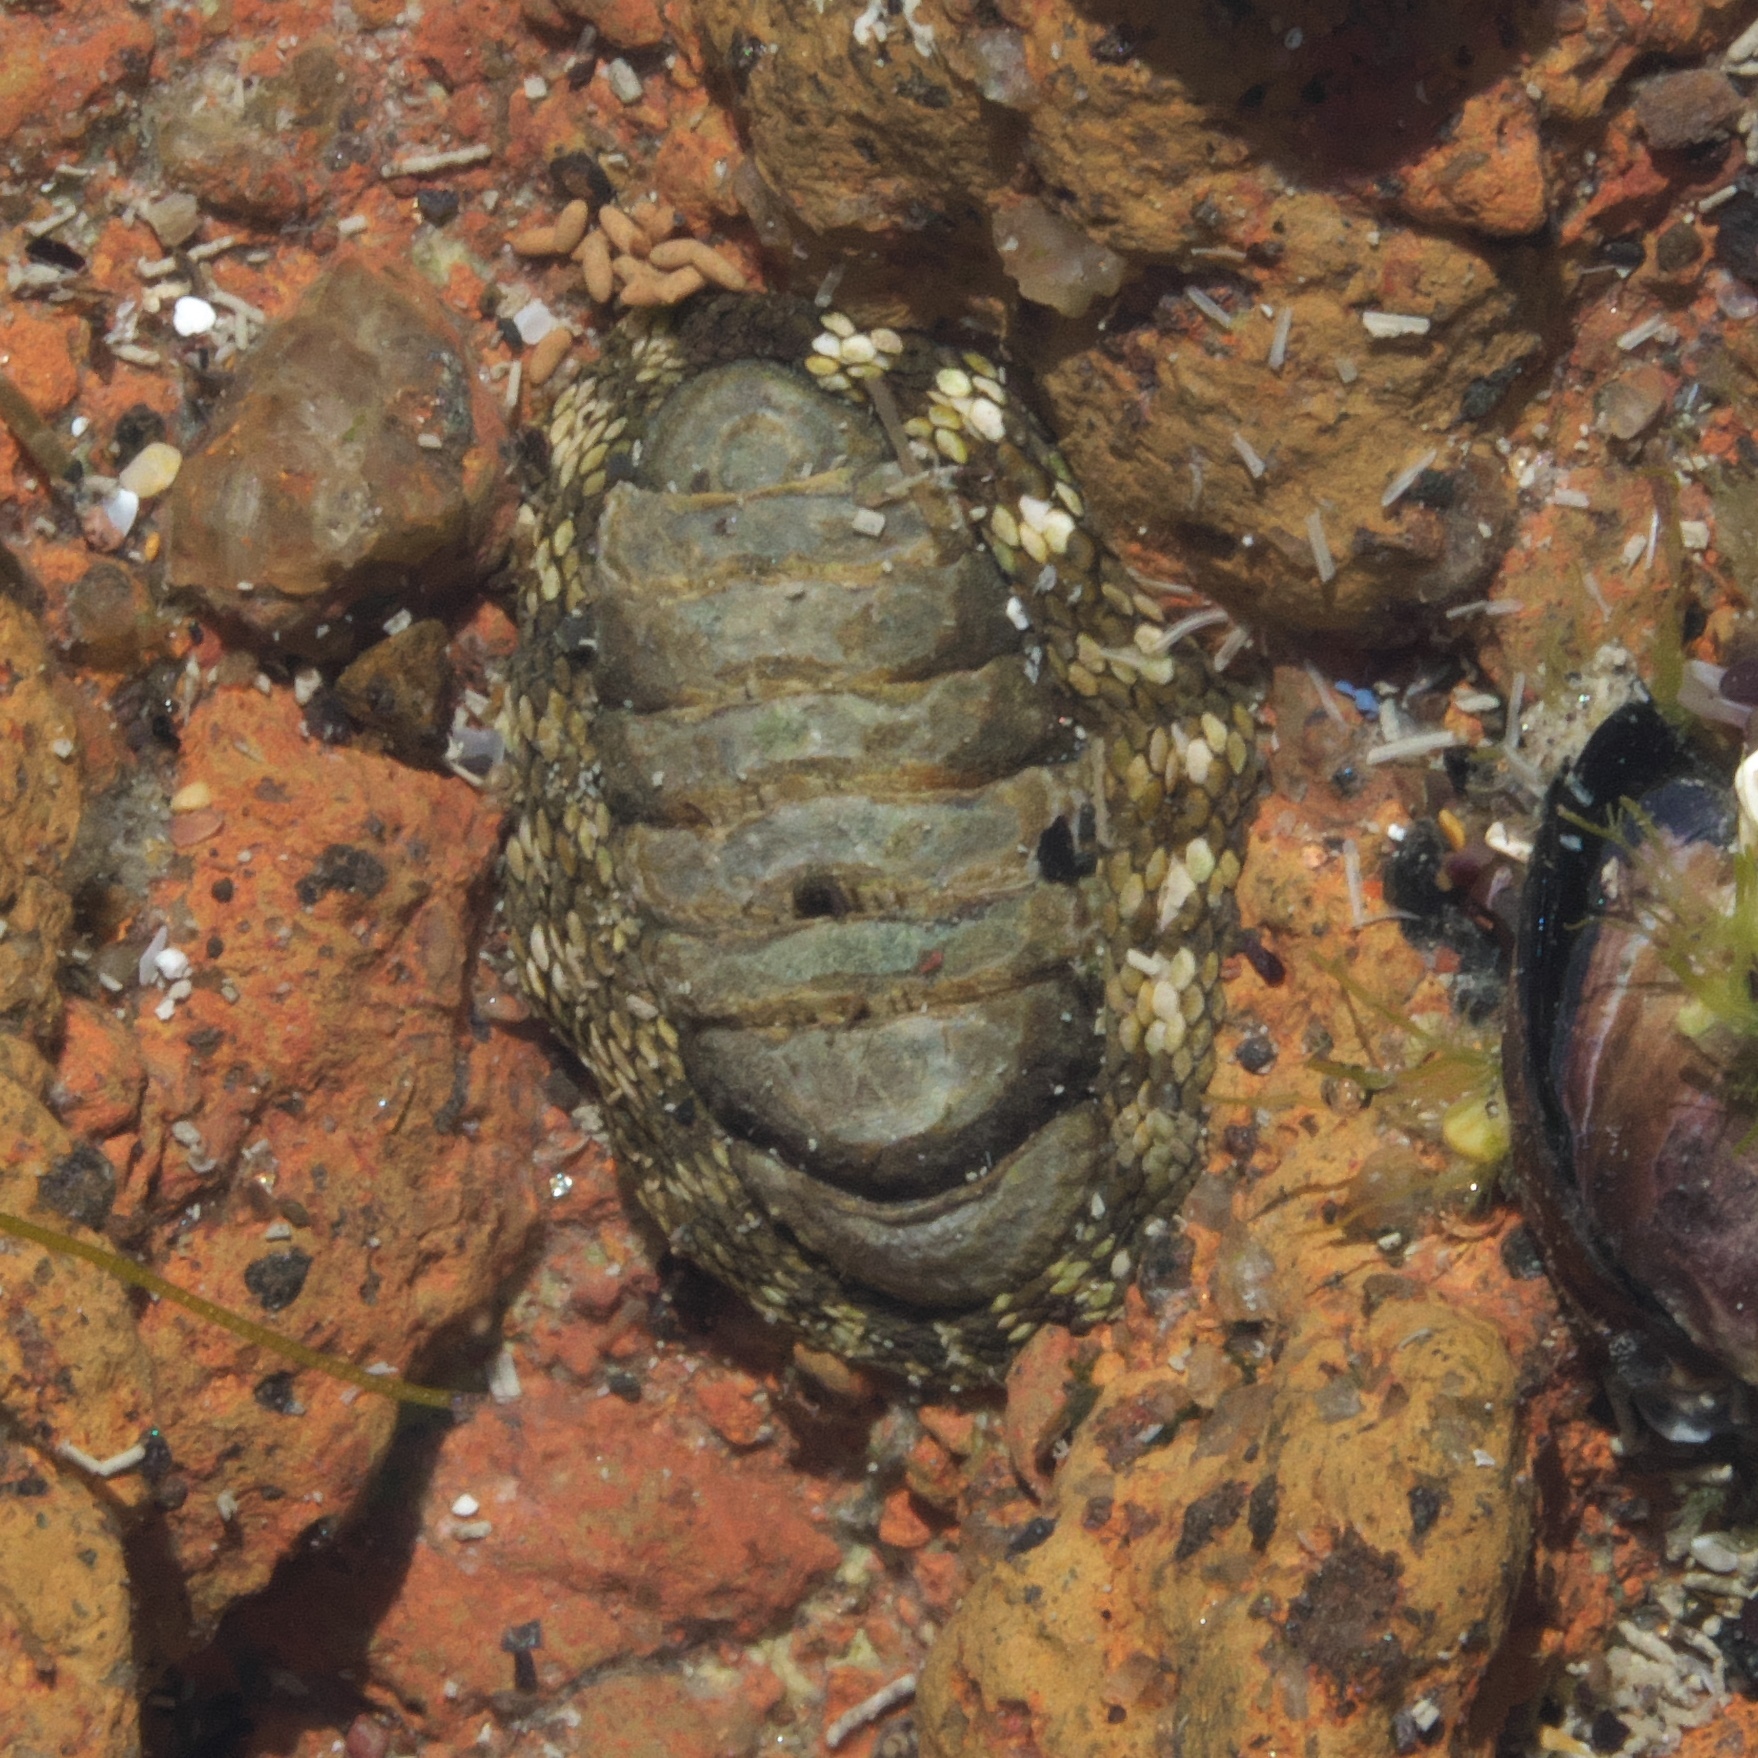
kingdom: Animalia
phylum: Mollusca
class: Polyplacophora
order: Chitonida
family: Chitonidae
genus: Sypharochiton
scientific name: Sypharochiton pelliserpentis
